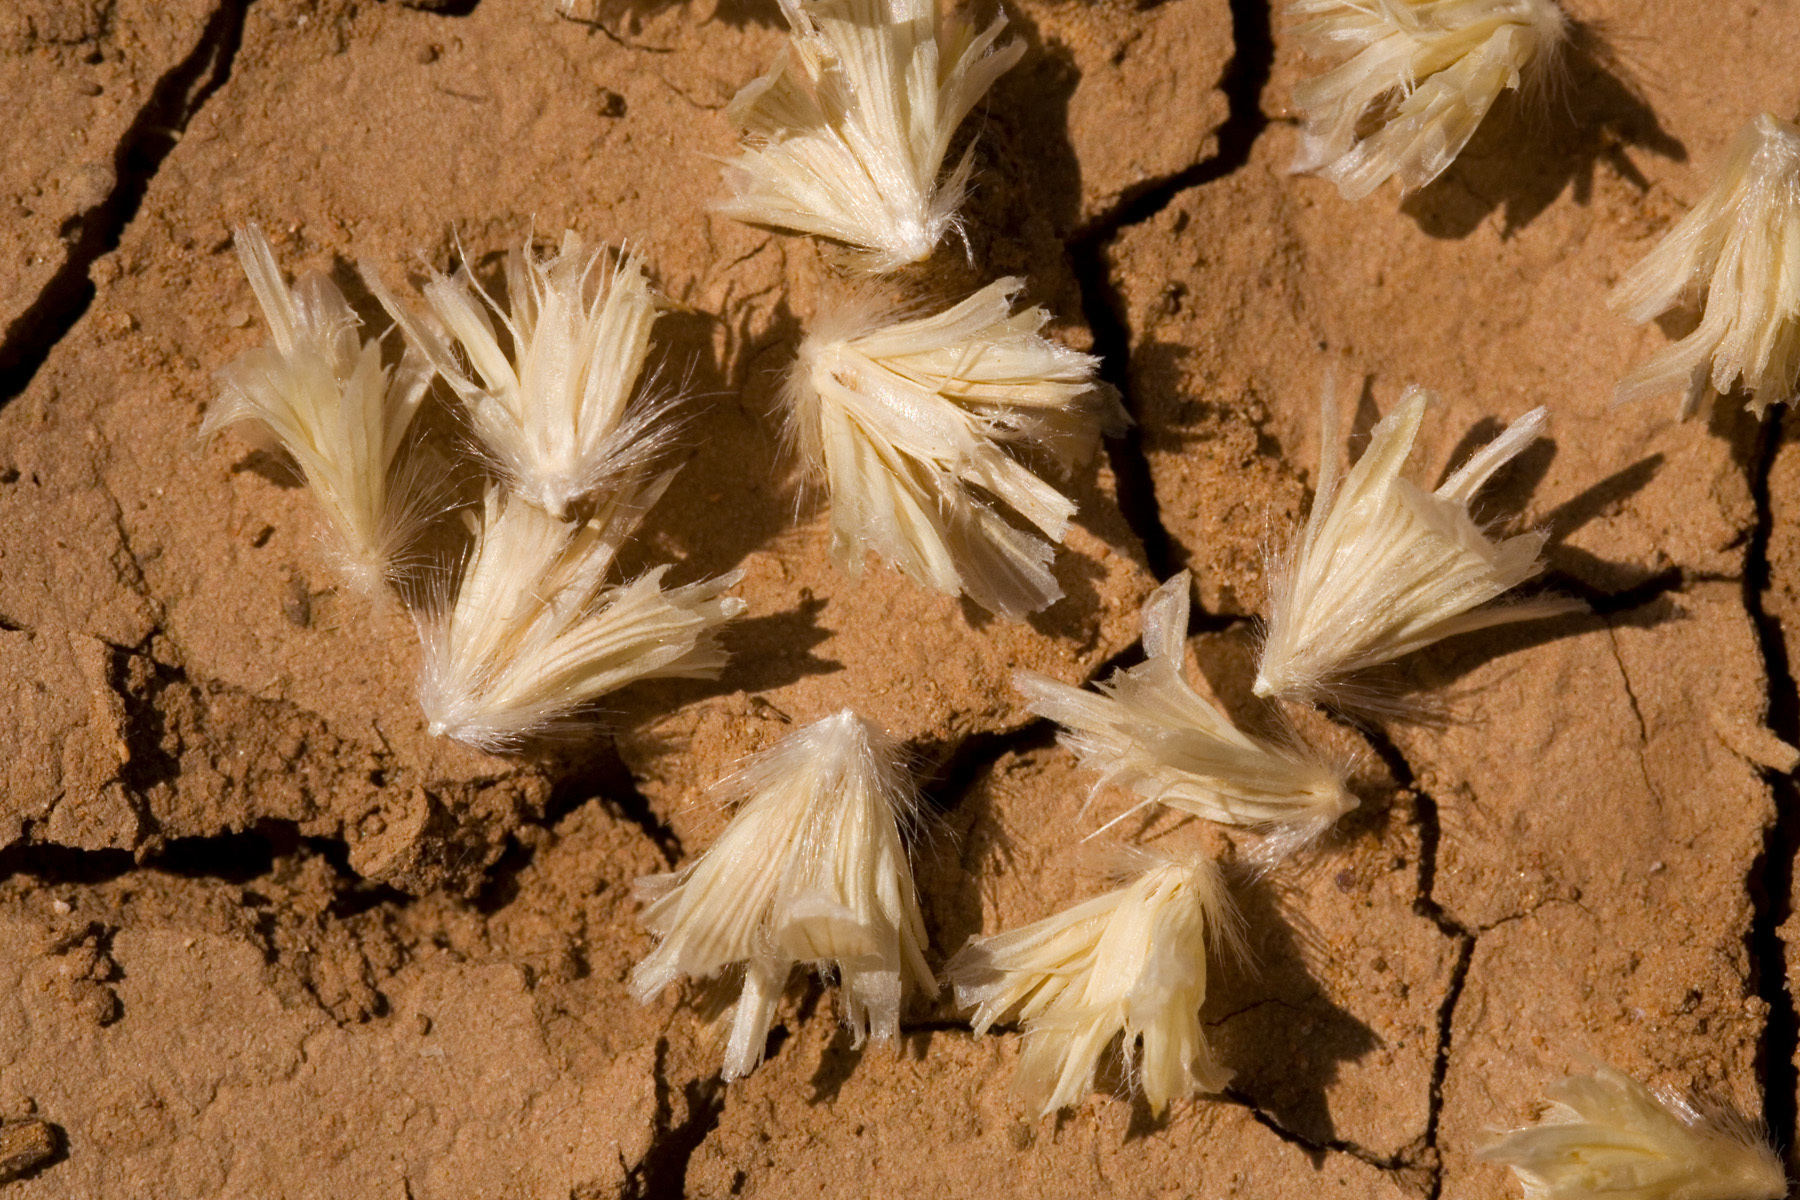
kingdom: Plantae
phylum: Tracheophyta
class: Liliopsida
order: Poales
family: Poaceae
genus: Hilaria
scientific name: Hilaria mutica
